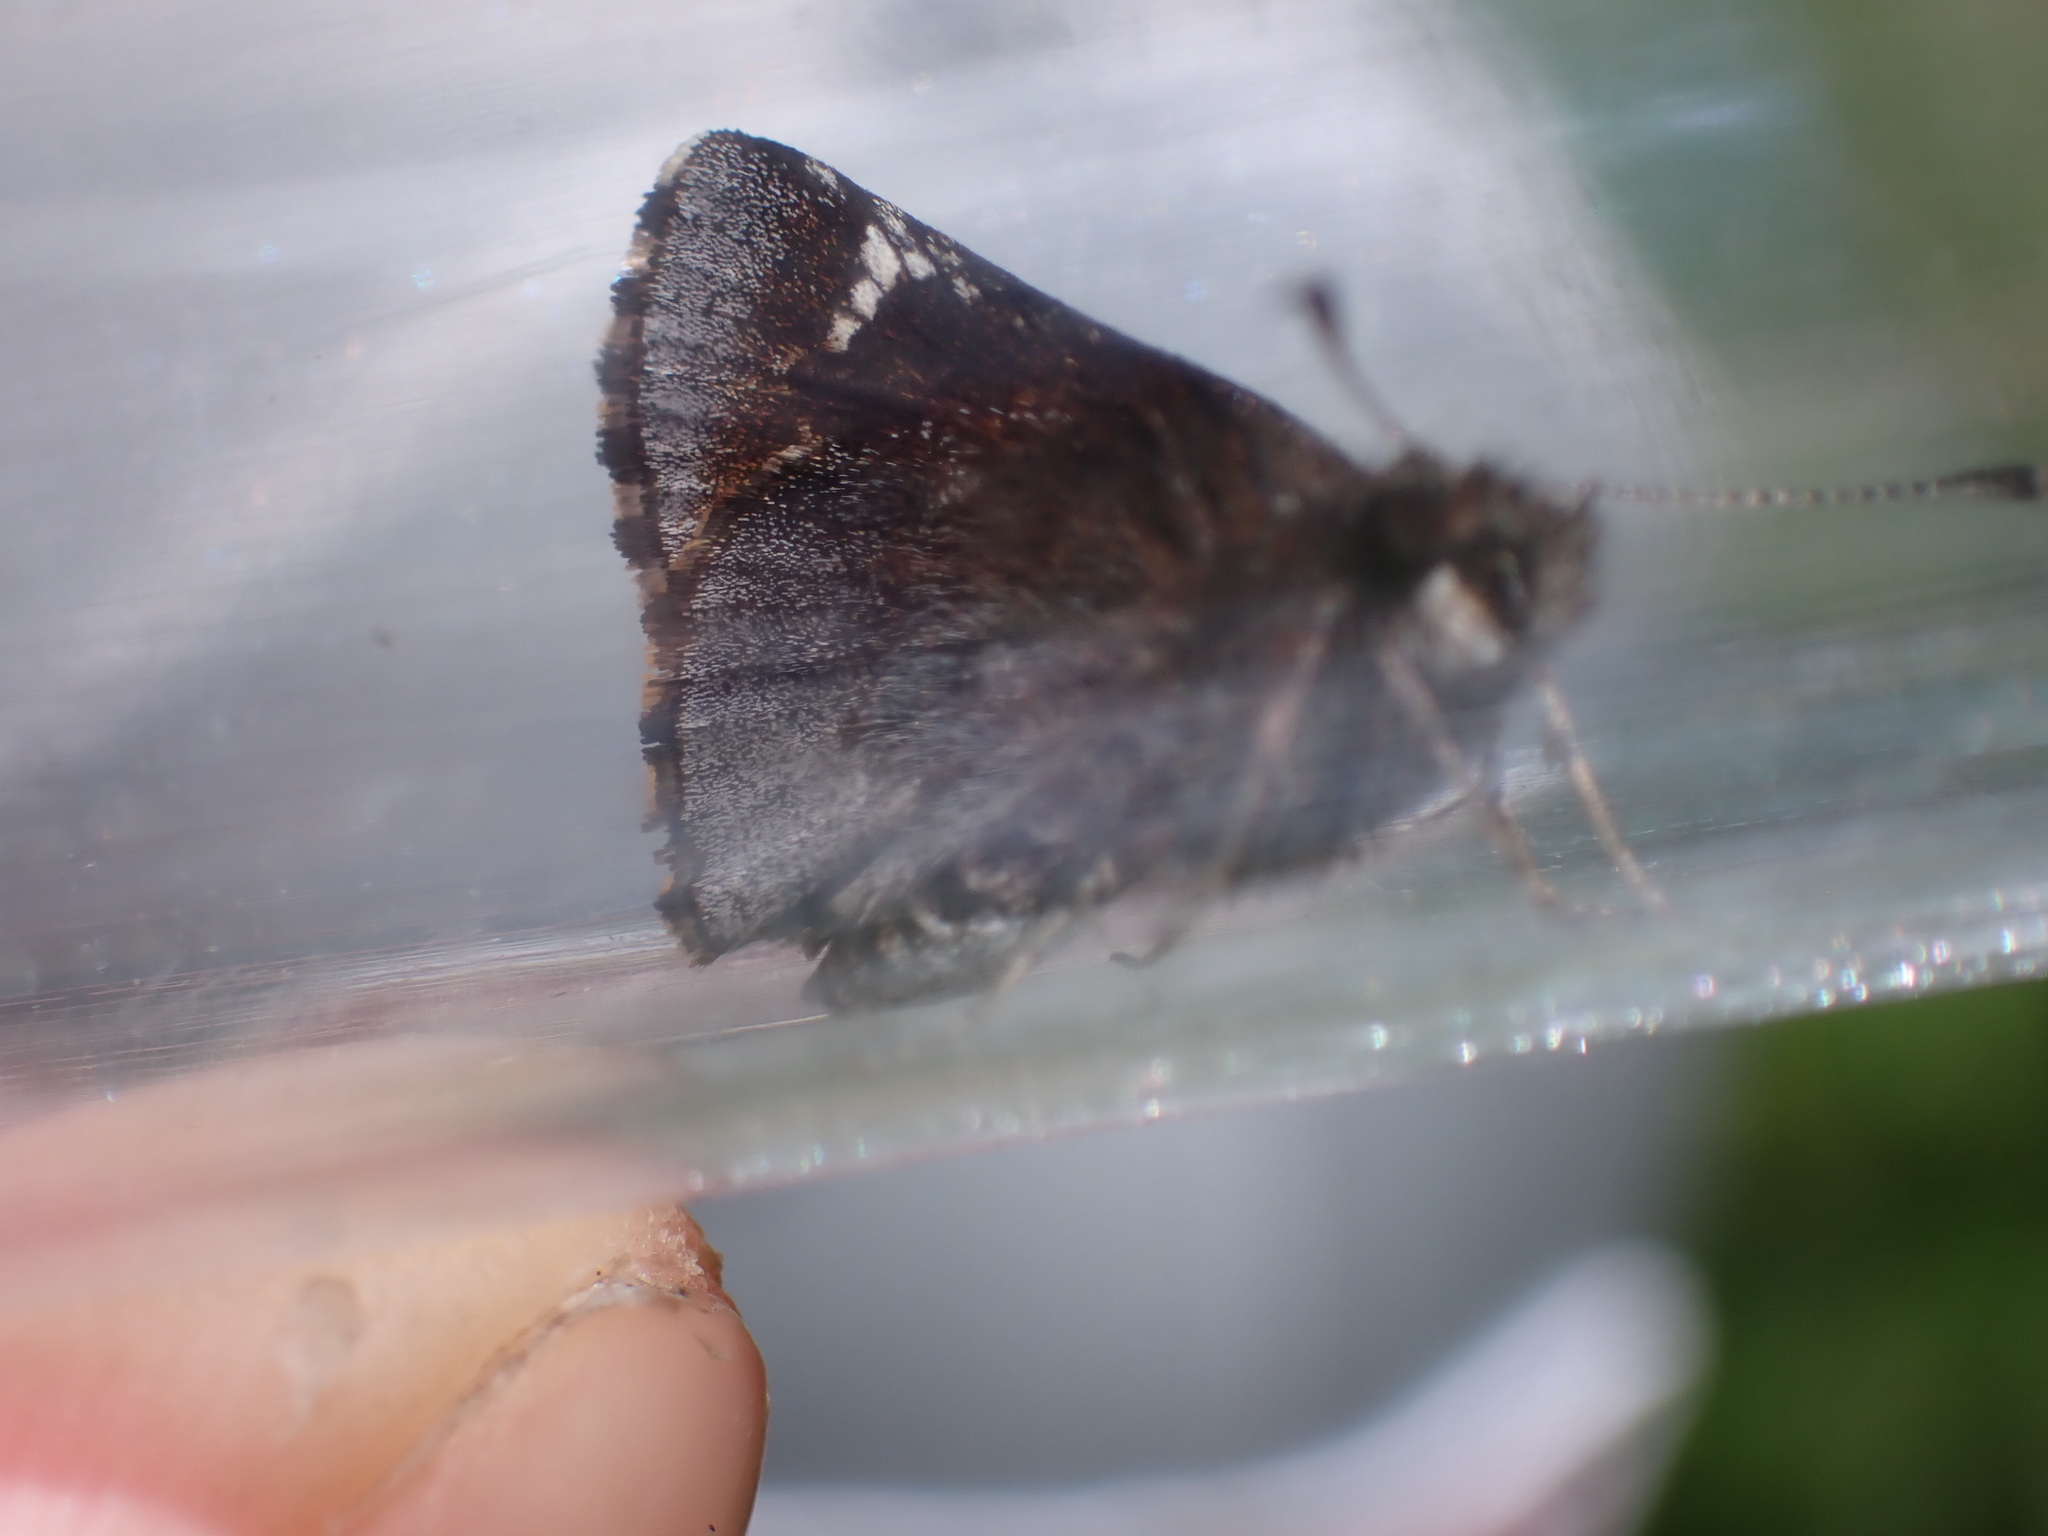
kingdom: Animalia
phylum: Arthropoda
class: Insecta
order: Lepidoptera
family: Hesperiidae
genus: Mastor
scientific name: Mastor vialis
